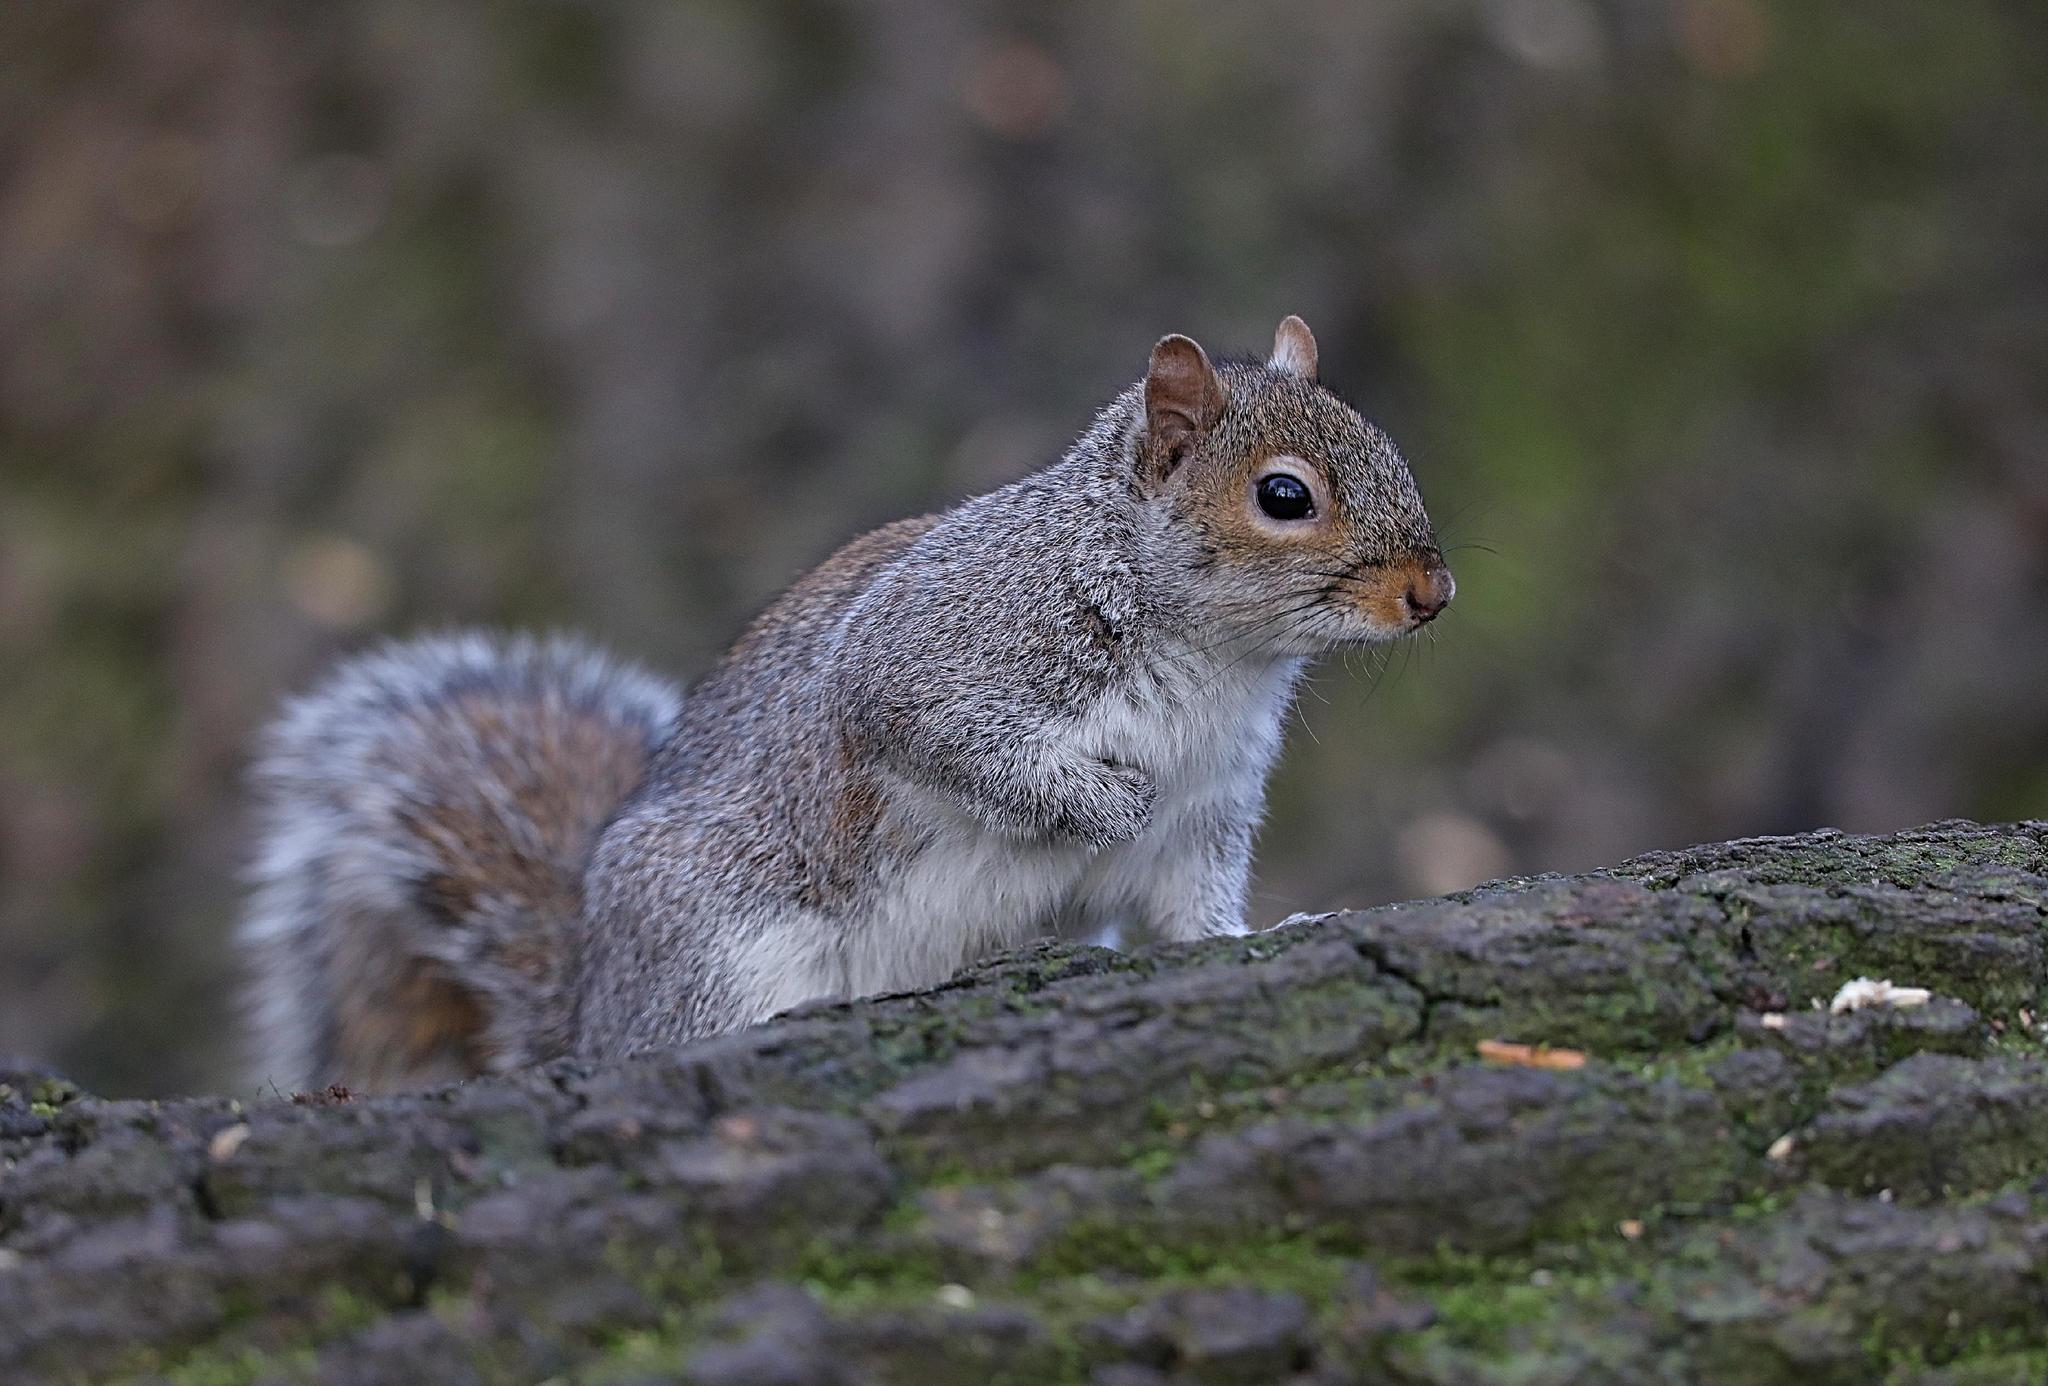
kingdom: Animalia
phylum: Chordata
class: Mammalia
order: Rodentia
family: Sciuridae
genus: Sciurus
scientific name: Sciurus carolinensis
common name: Eastern gray squirrel
